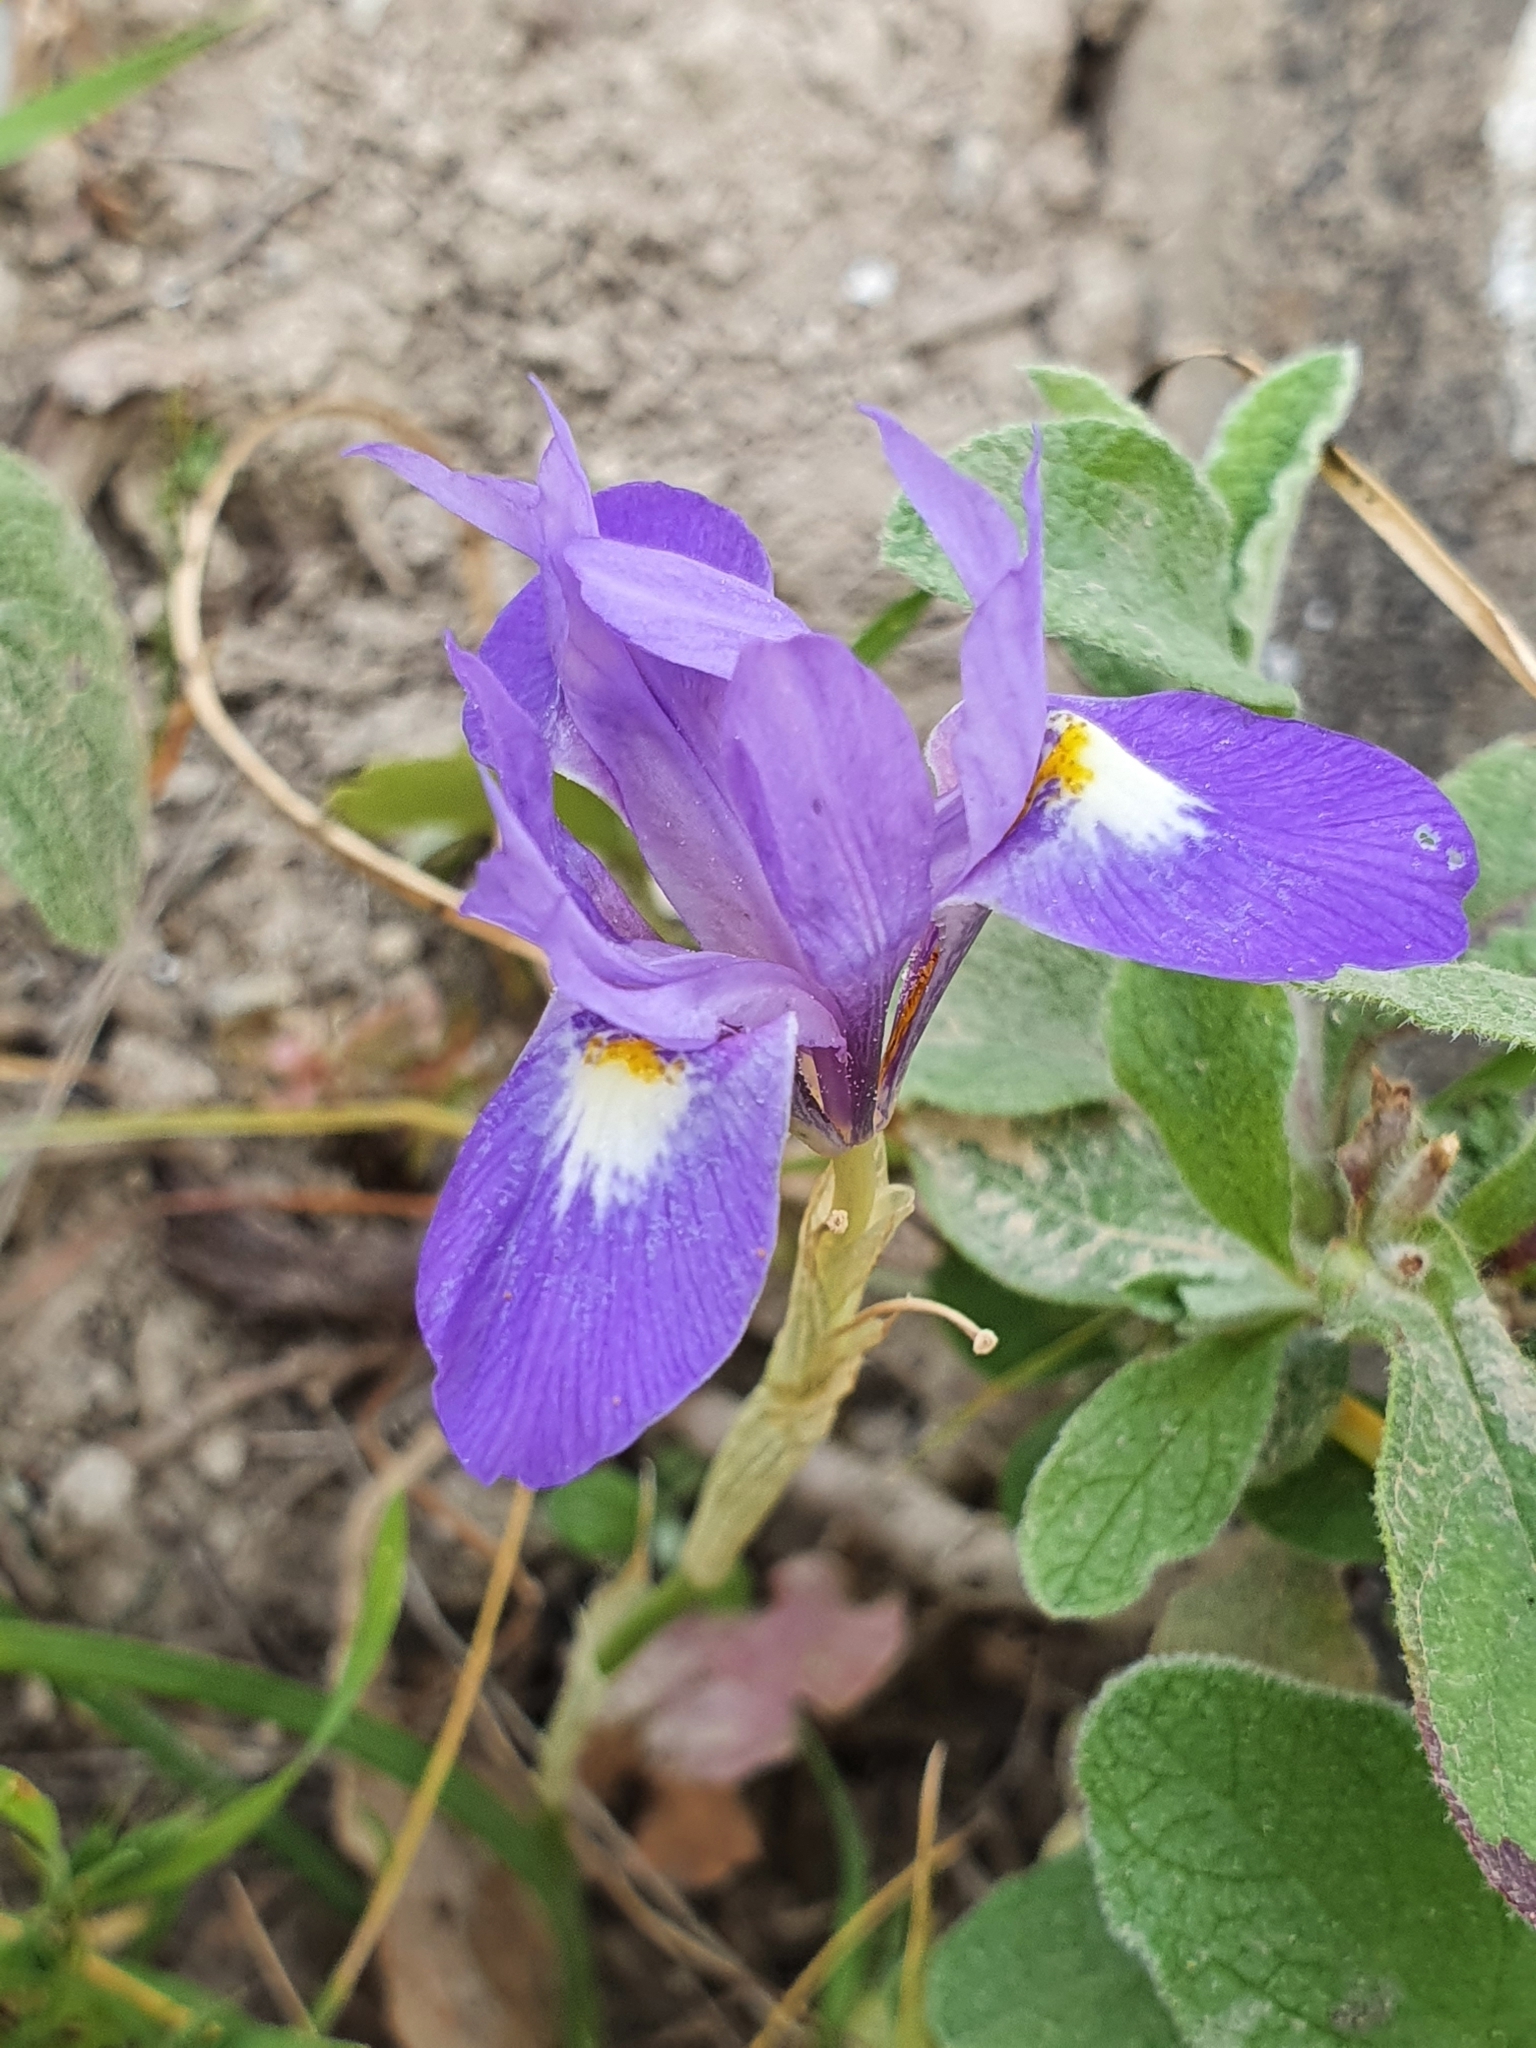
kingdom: Plantae
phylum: Tracheophyta
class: Liliopsida
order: Asparagales
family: Iridaceae
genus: Moraea
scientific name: Moraea sisyrinchium
